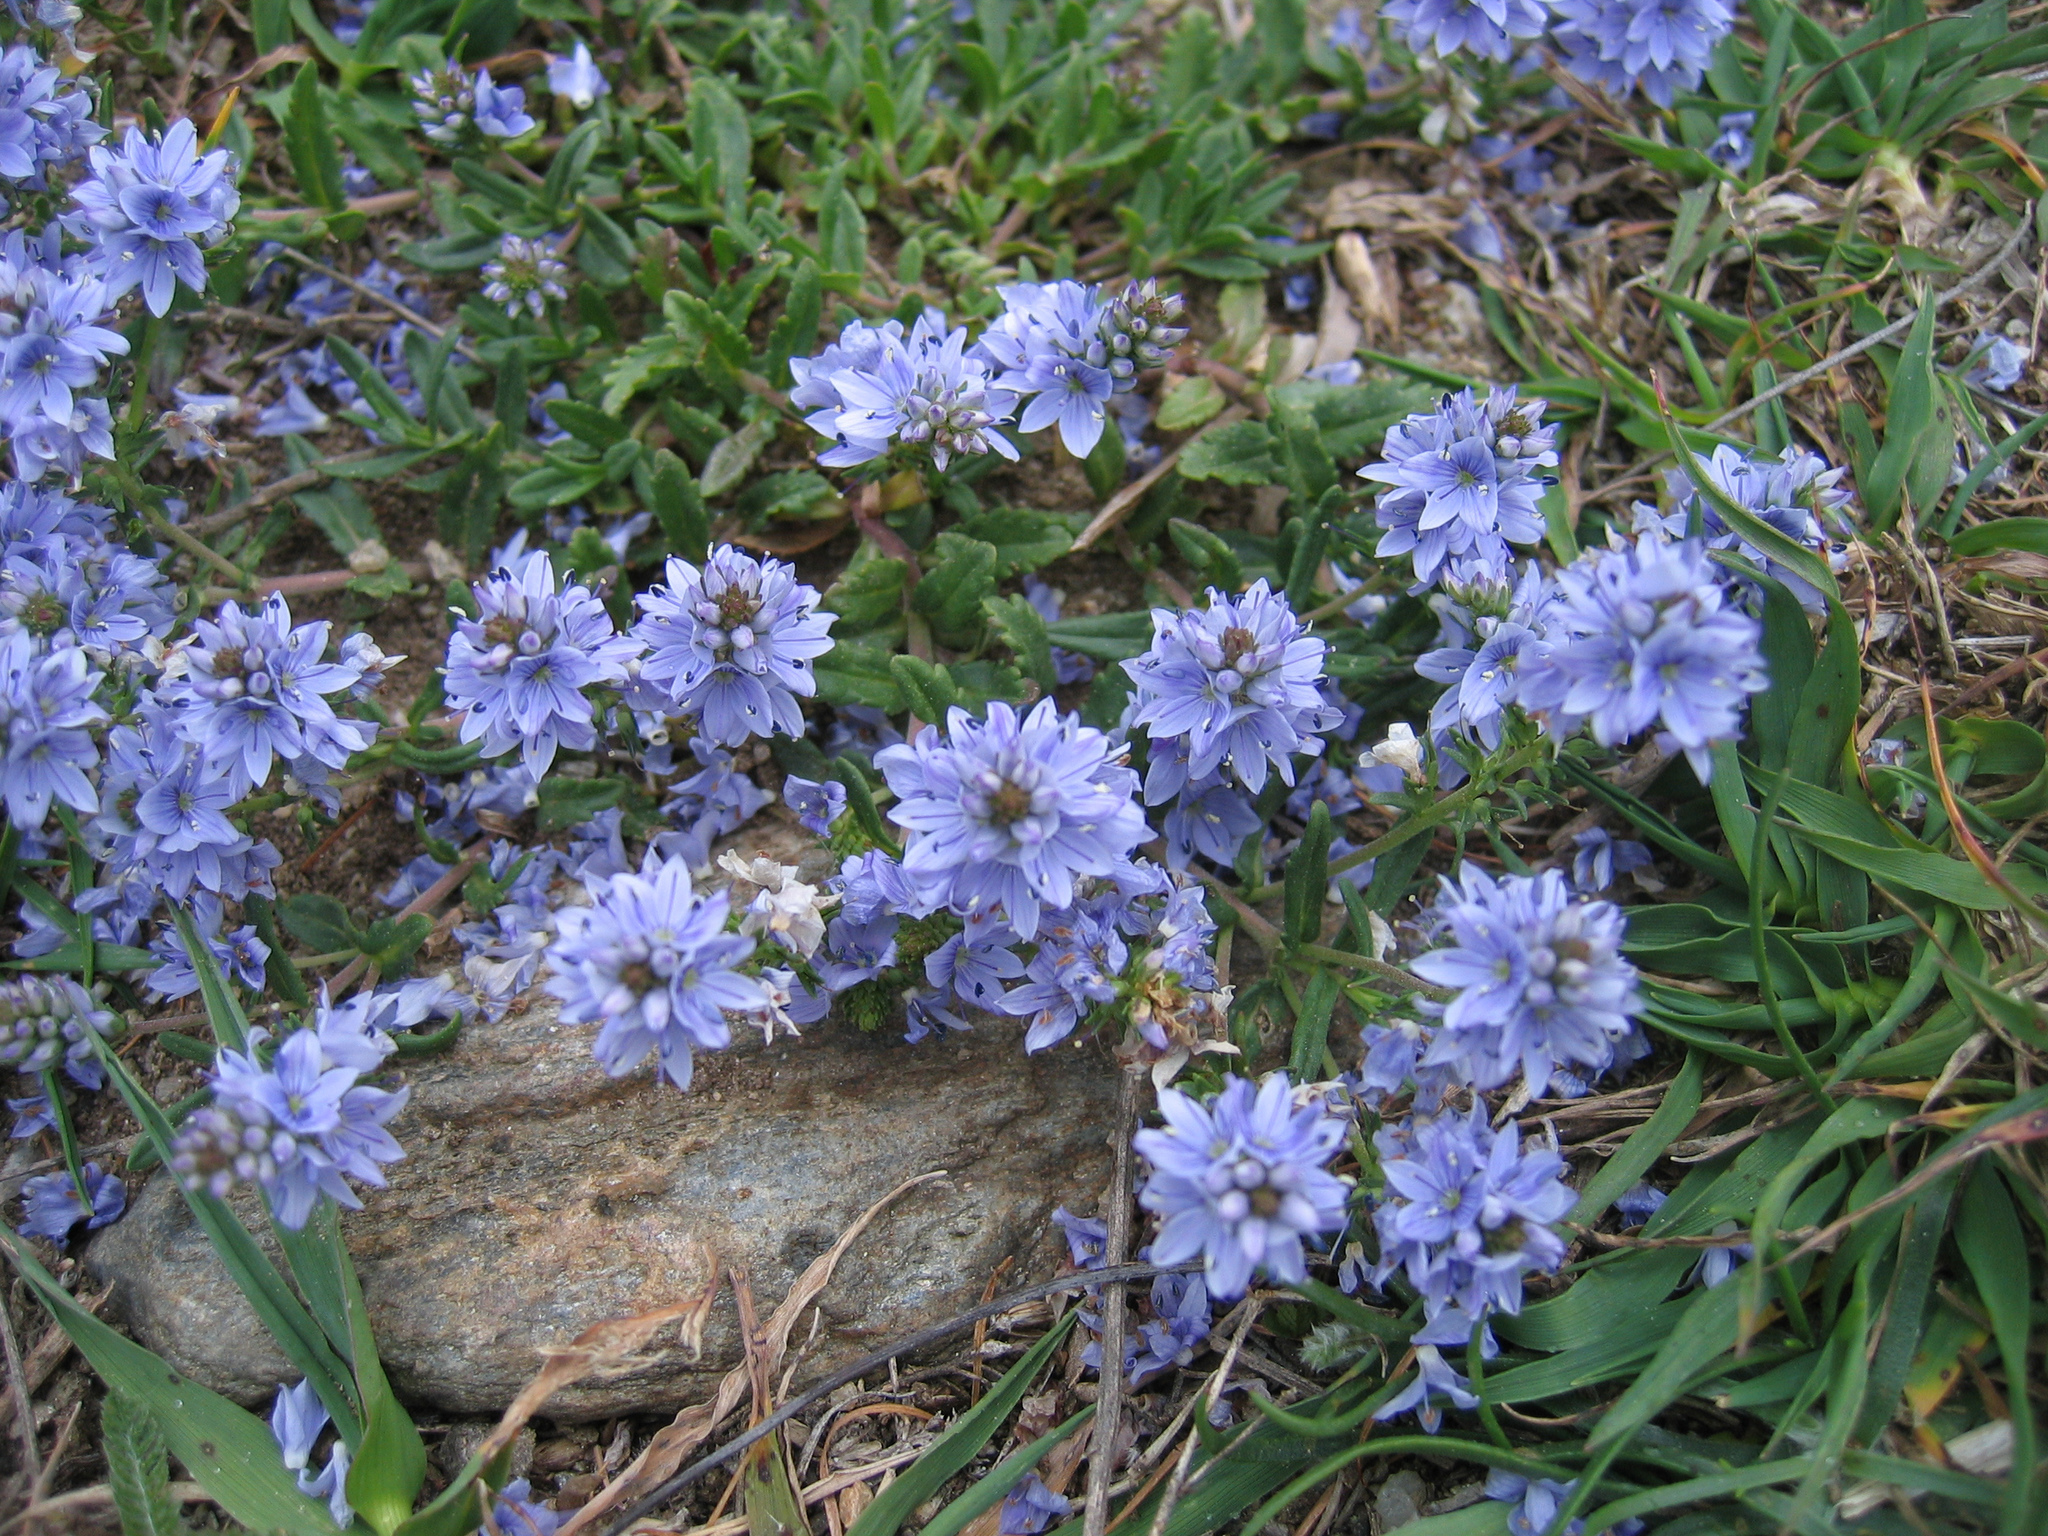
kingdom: Plantae
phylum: Tracheophyta
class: Magnoliopsida
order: Lamiales
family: Plantaginaceae
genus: Veronica
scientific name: Veronica prostrata
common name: Prostrate speedwell
